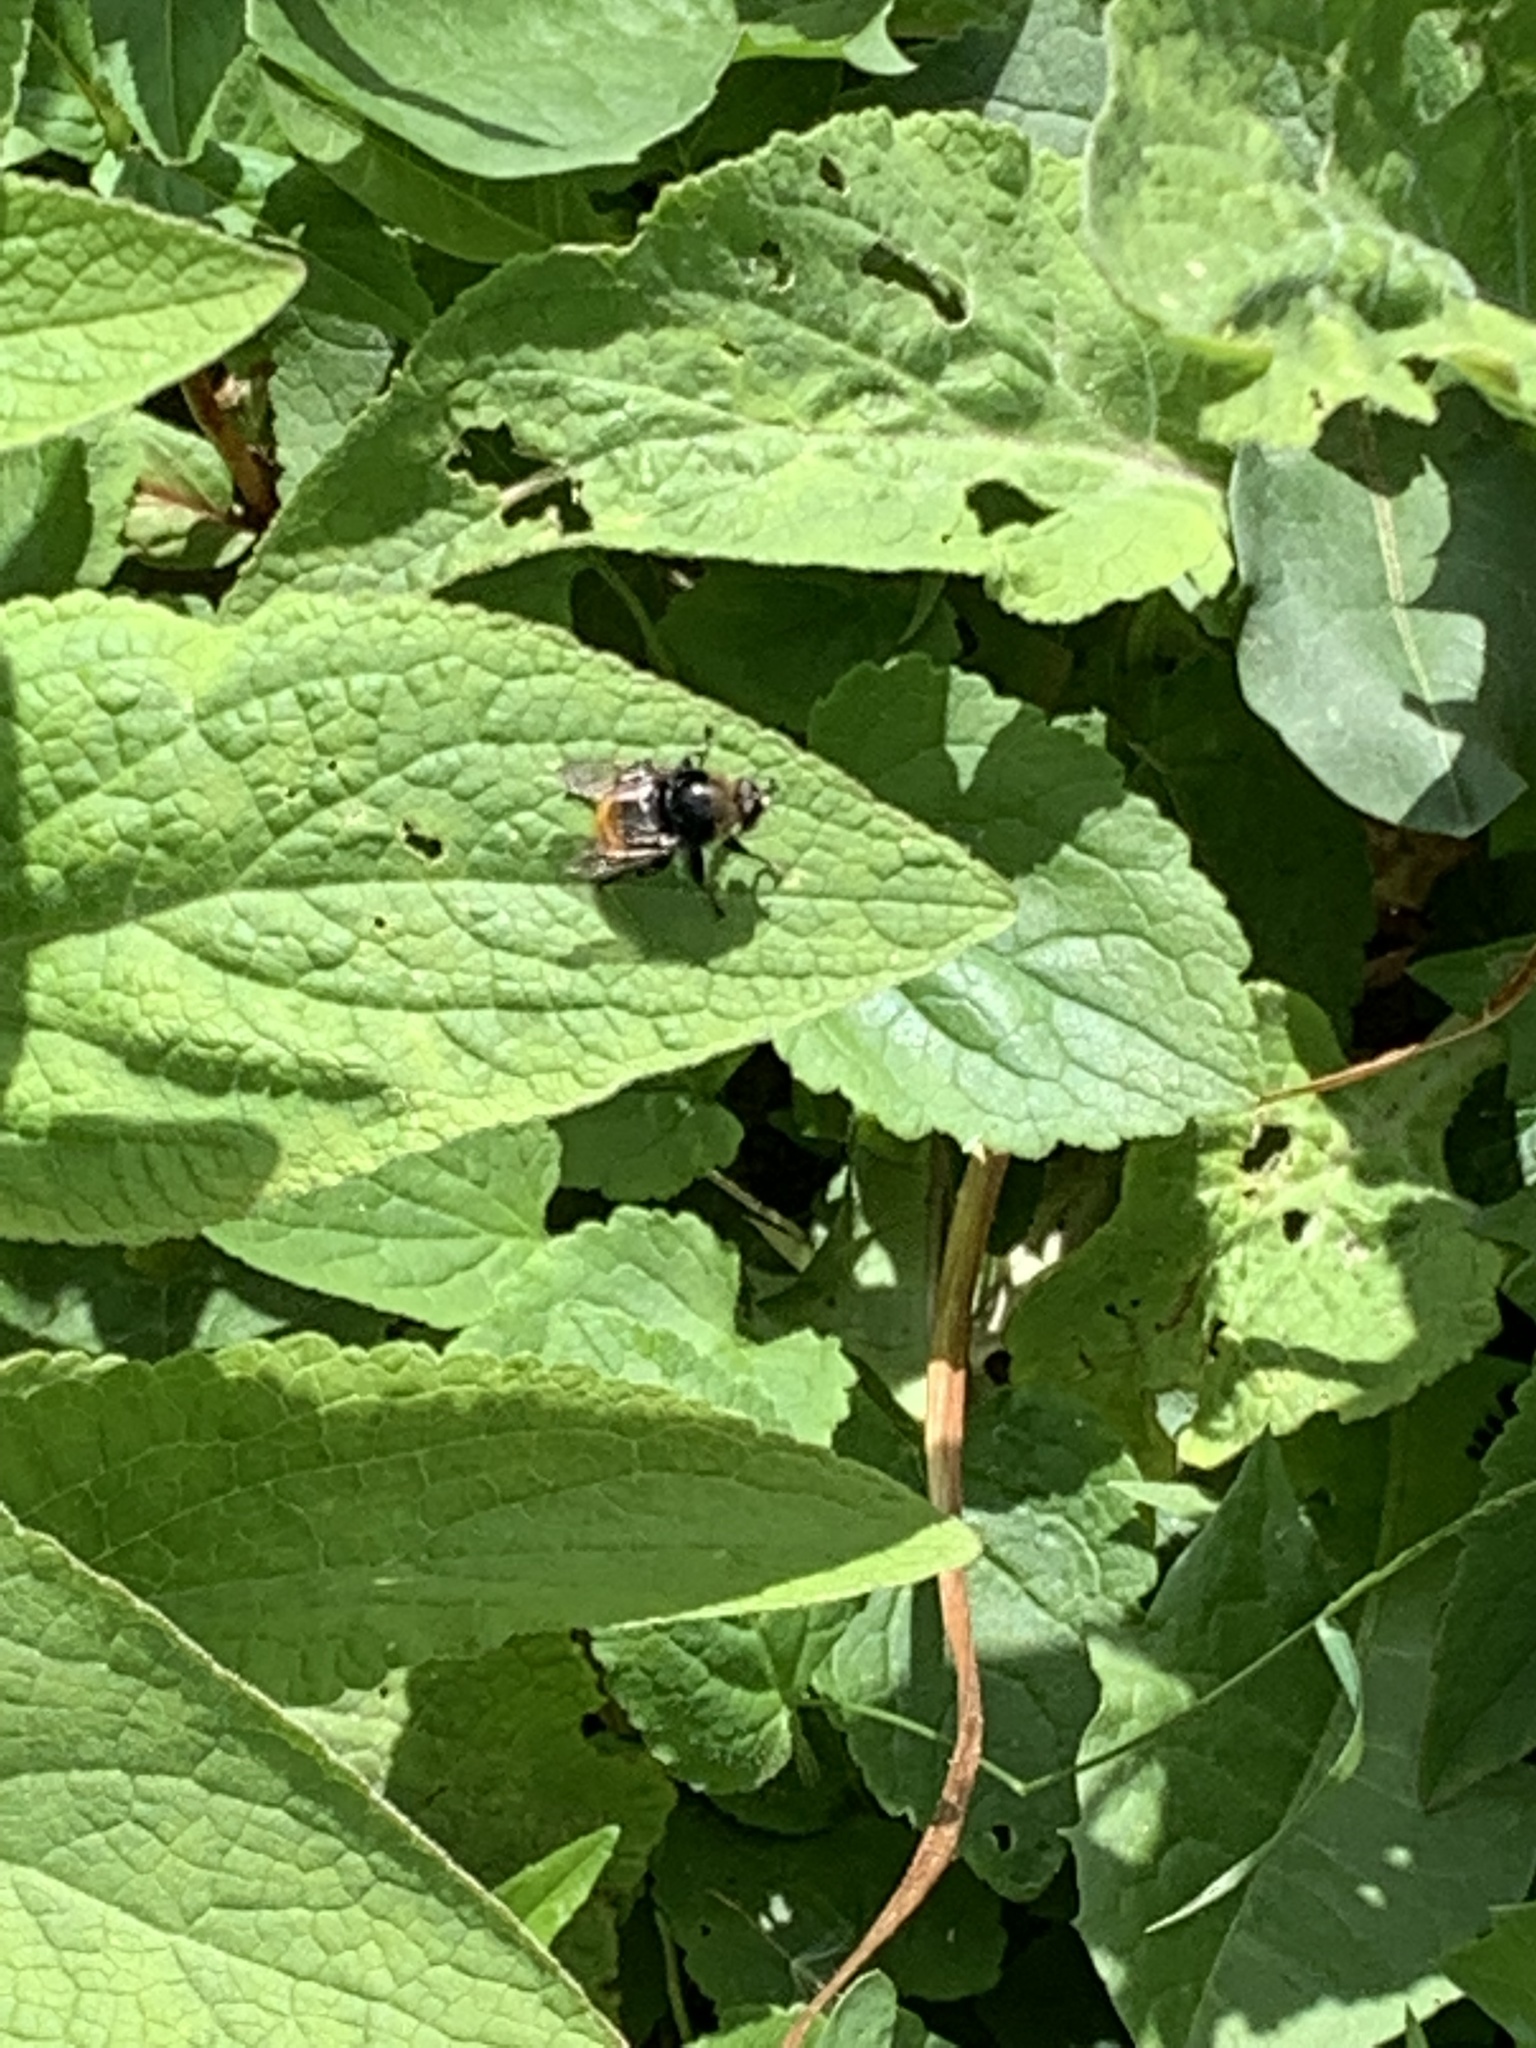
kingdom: Animalia
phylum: Arthropoda
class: Insecta
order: Diptera
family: Syrphidae
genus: Merodon
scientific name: Merodon equestris
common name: Greater bulb-fly
